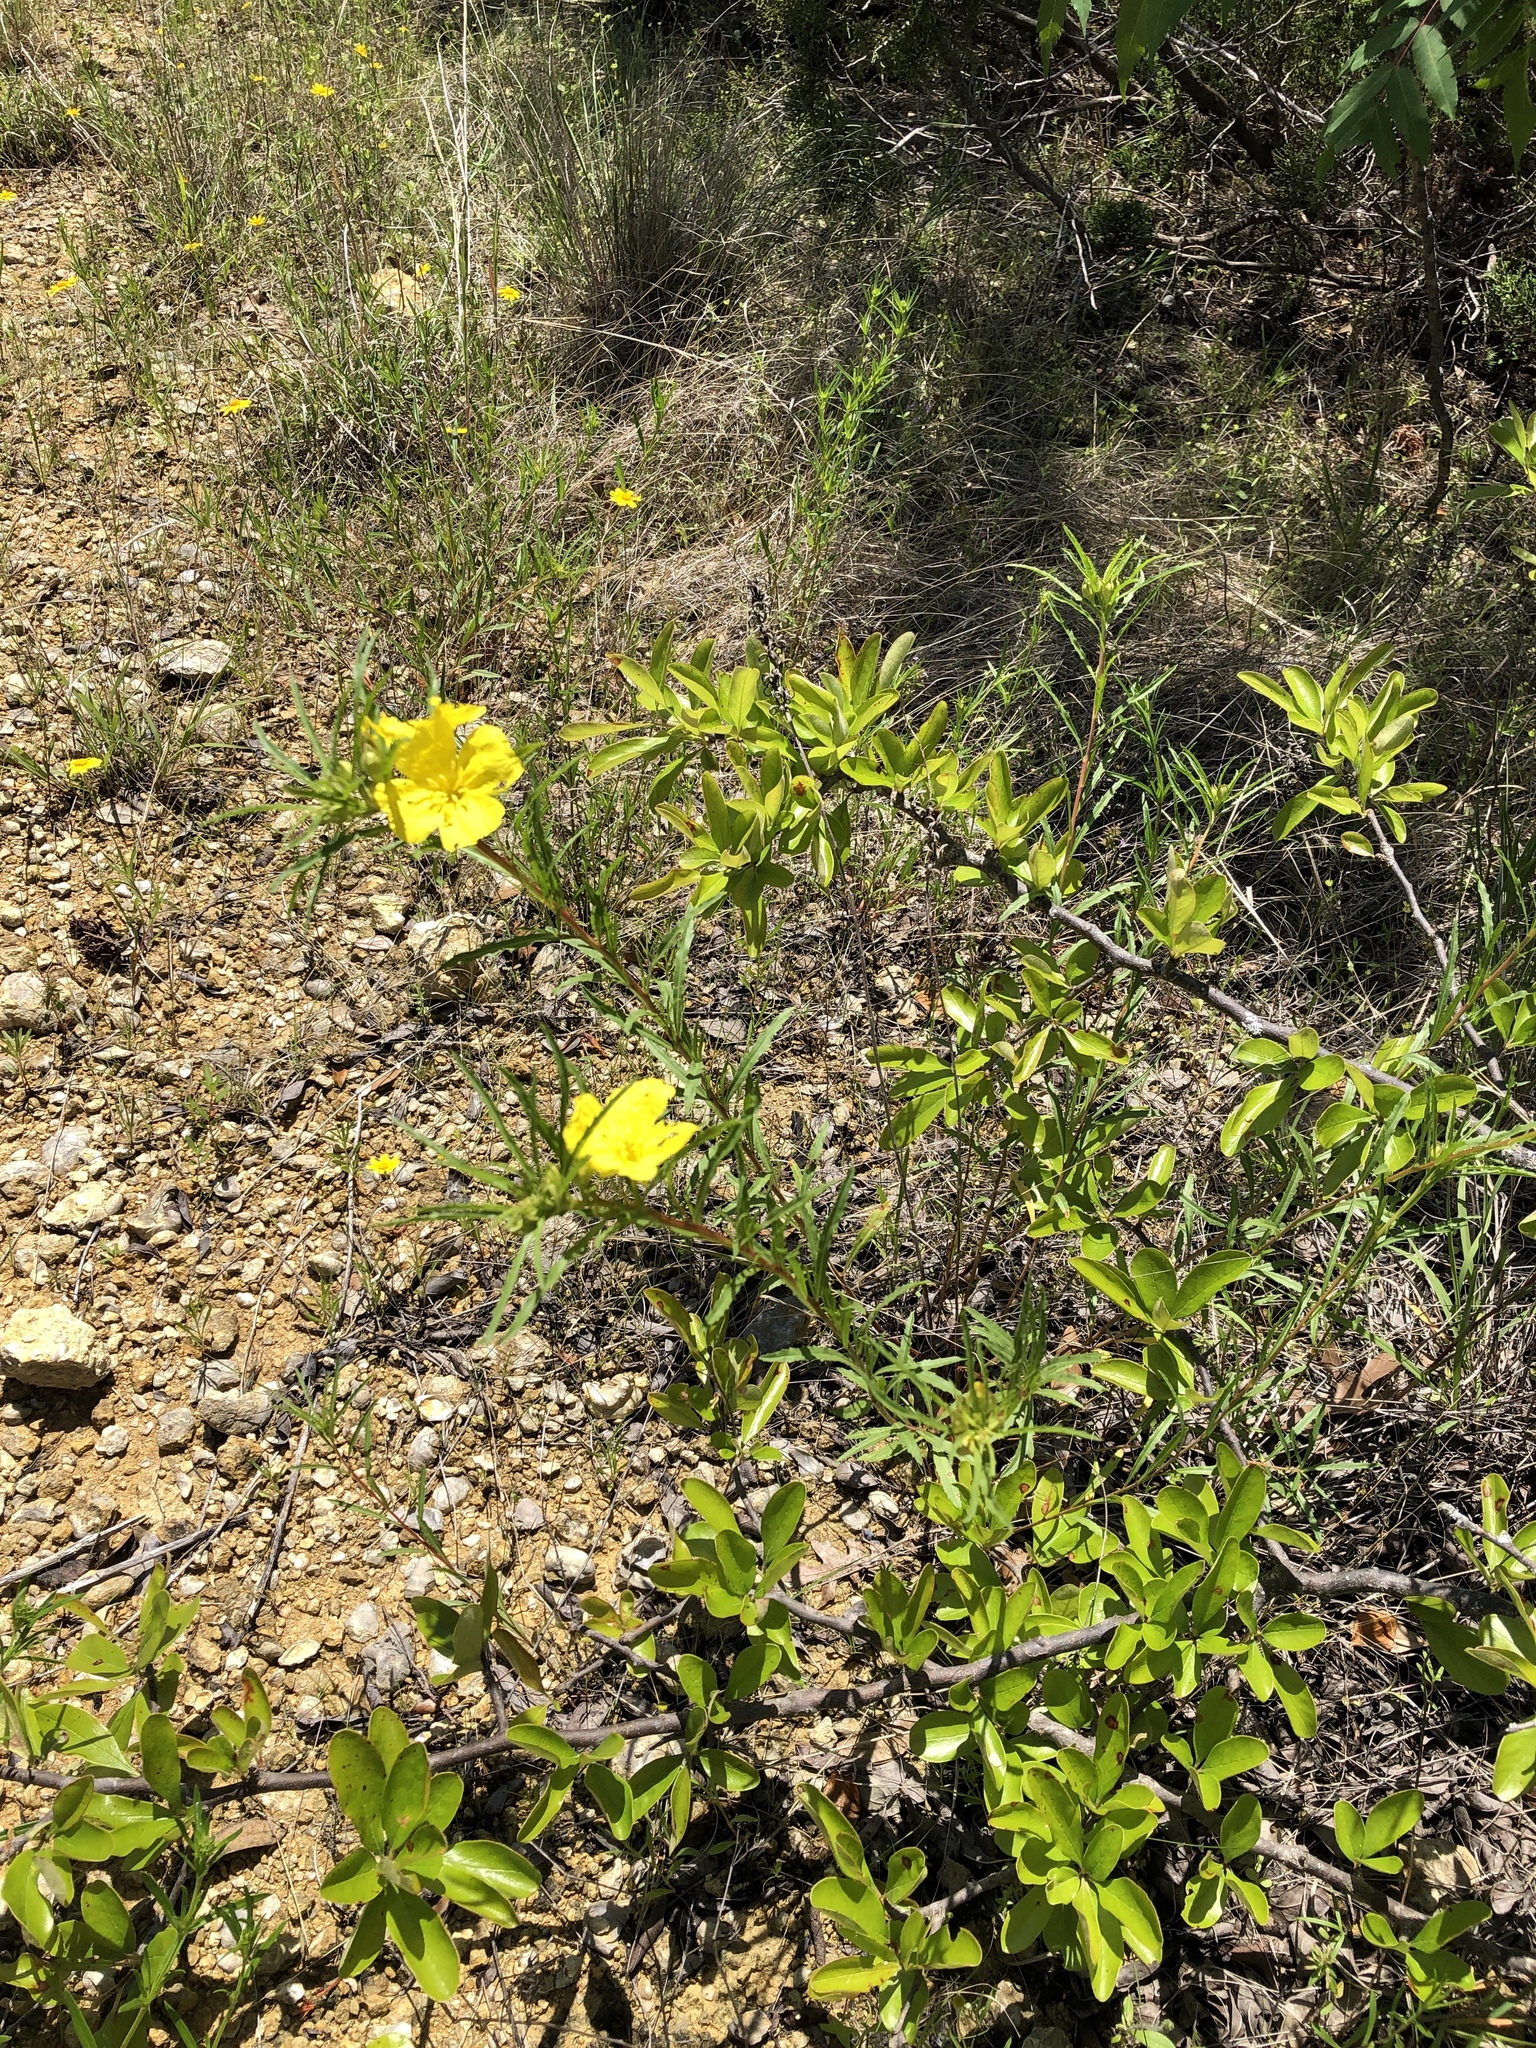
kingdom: Plantae
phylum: Tracheophyta
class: Magnoliopsida
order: Myrtales
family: Onagraceae
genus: Oenothera
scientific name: Oenothera
